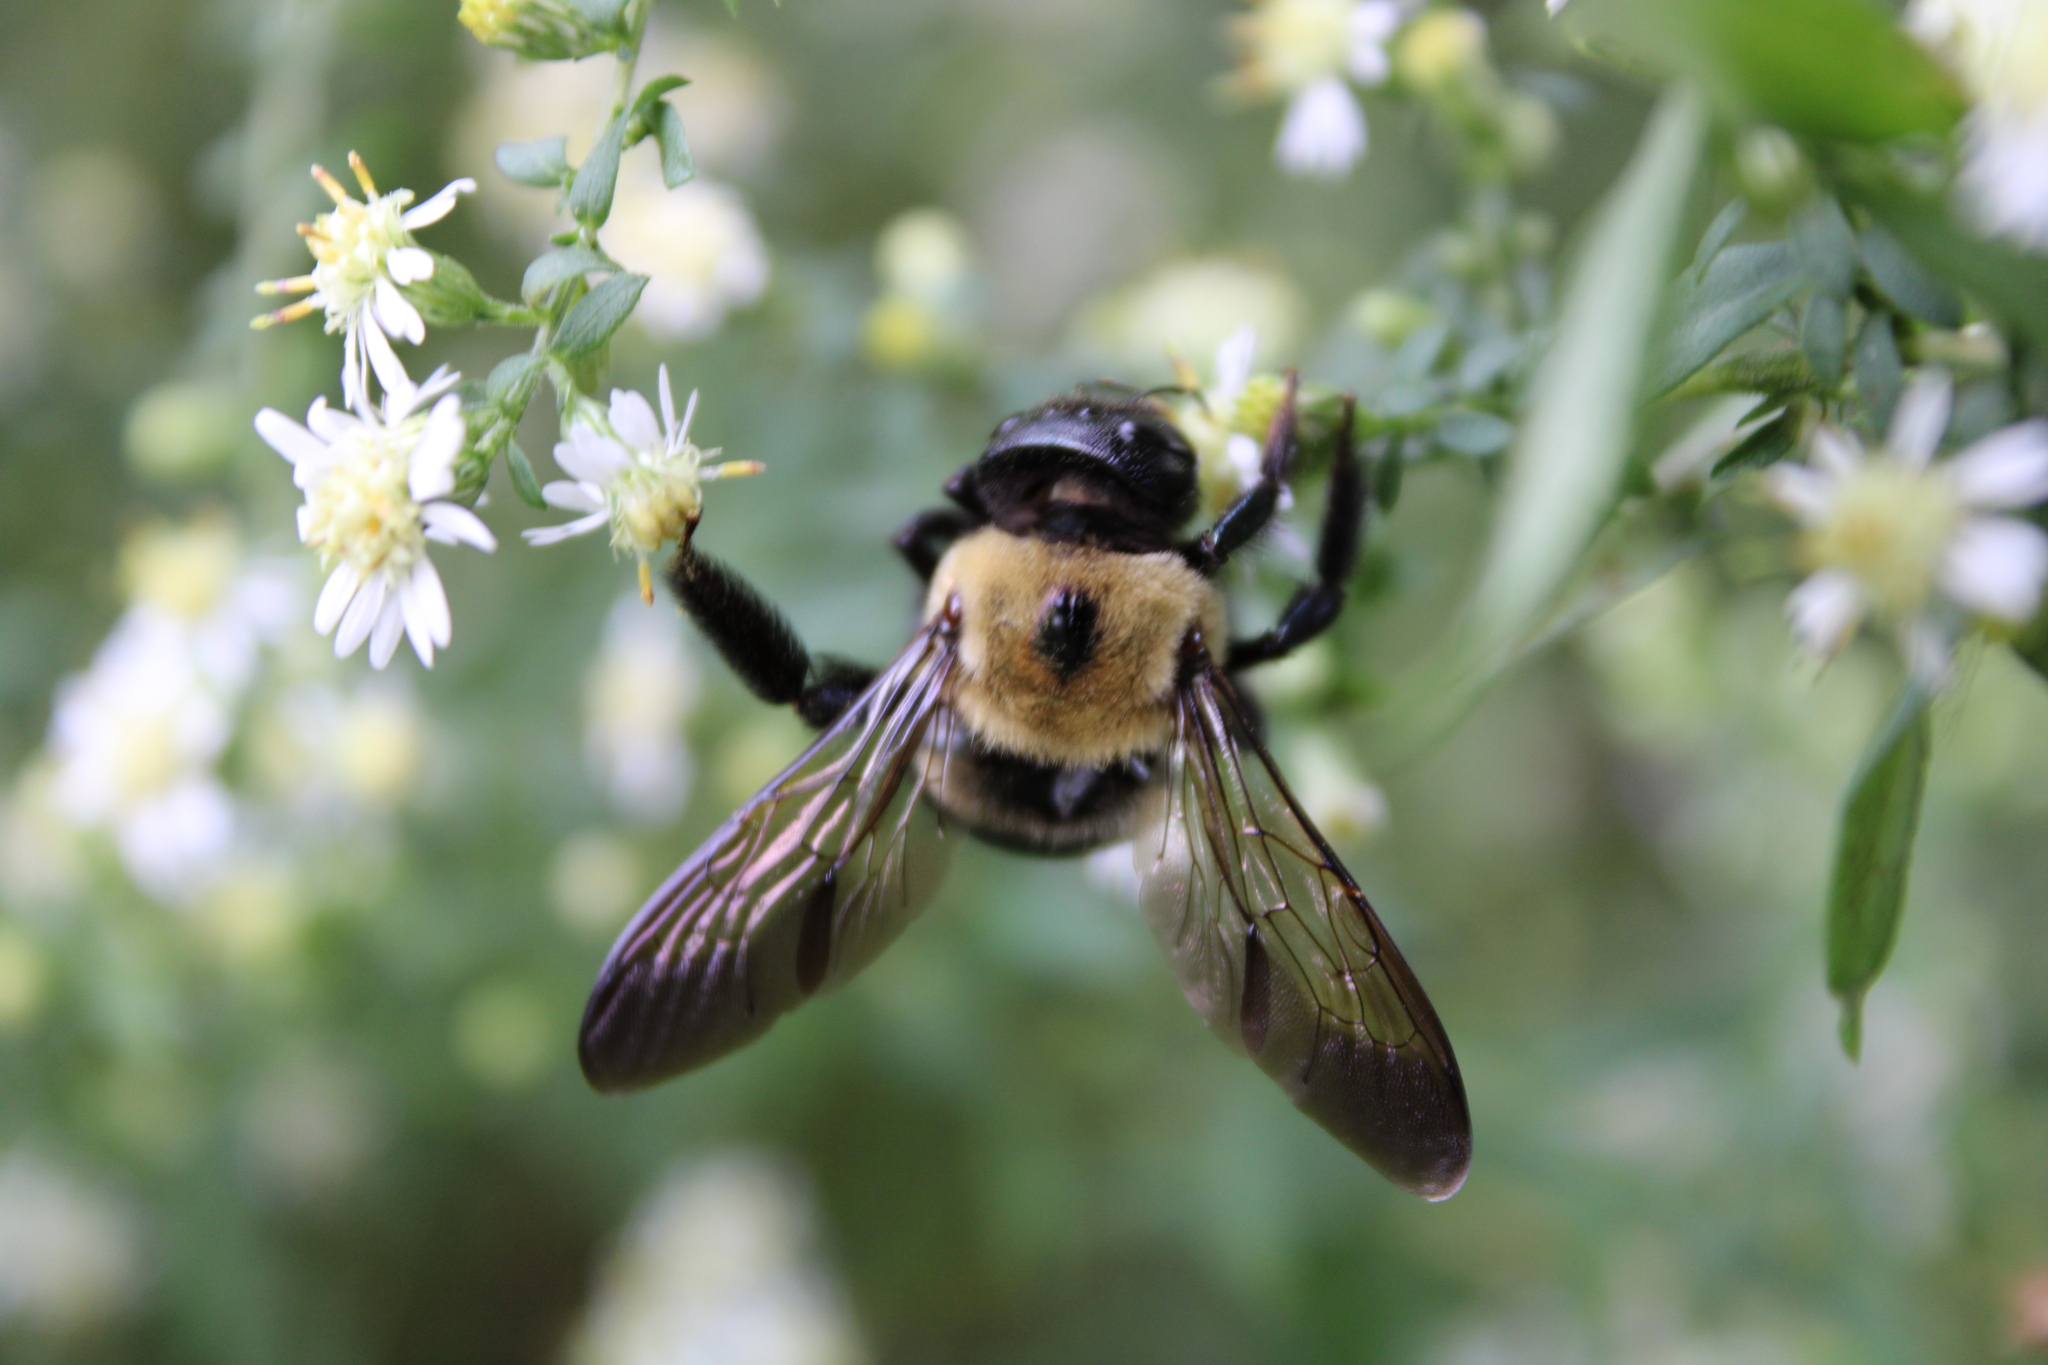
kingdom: Animalia
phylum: Arthropoda
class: Insecta
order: Hymenoptera
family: Apidae
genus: Xylocopa
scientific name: Xylocopa virginica
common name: Carpenter bee
